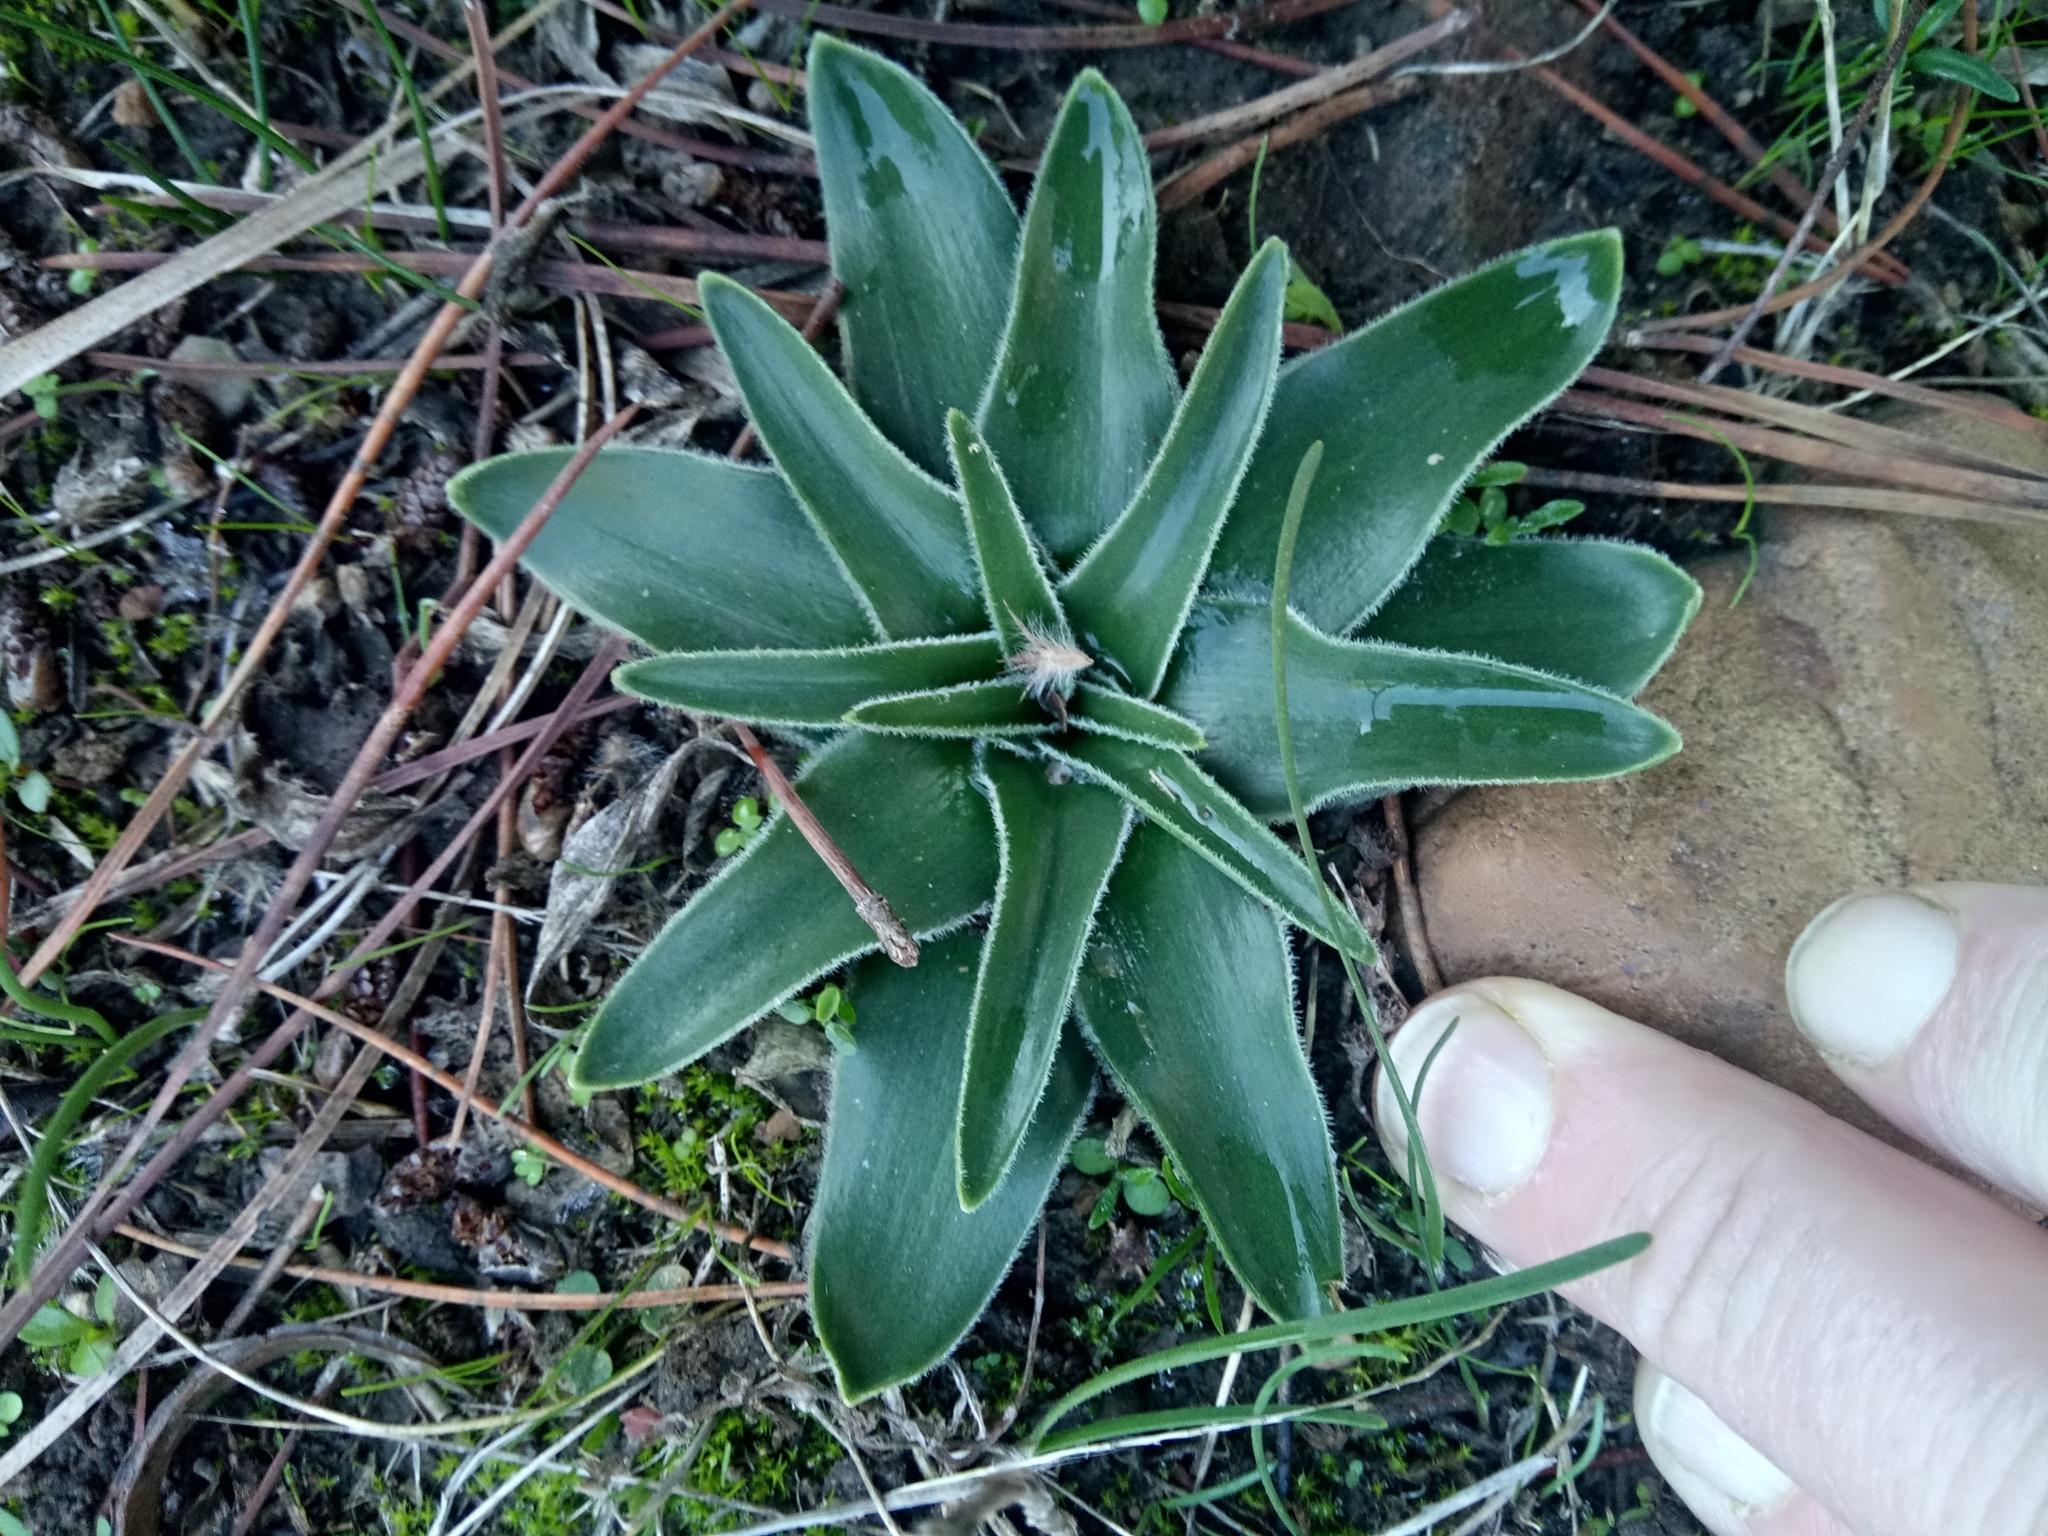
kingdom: Plantae
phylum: Tracheophyta
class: Liliopsida
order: Asparagales
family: Asparagaceae
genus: Scilla
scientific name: Scilla peruviana
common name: Portuguese squill
